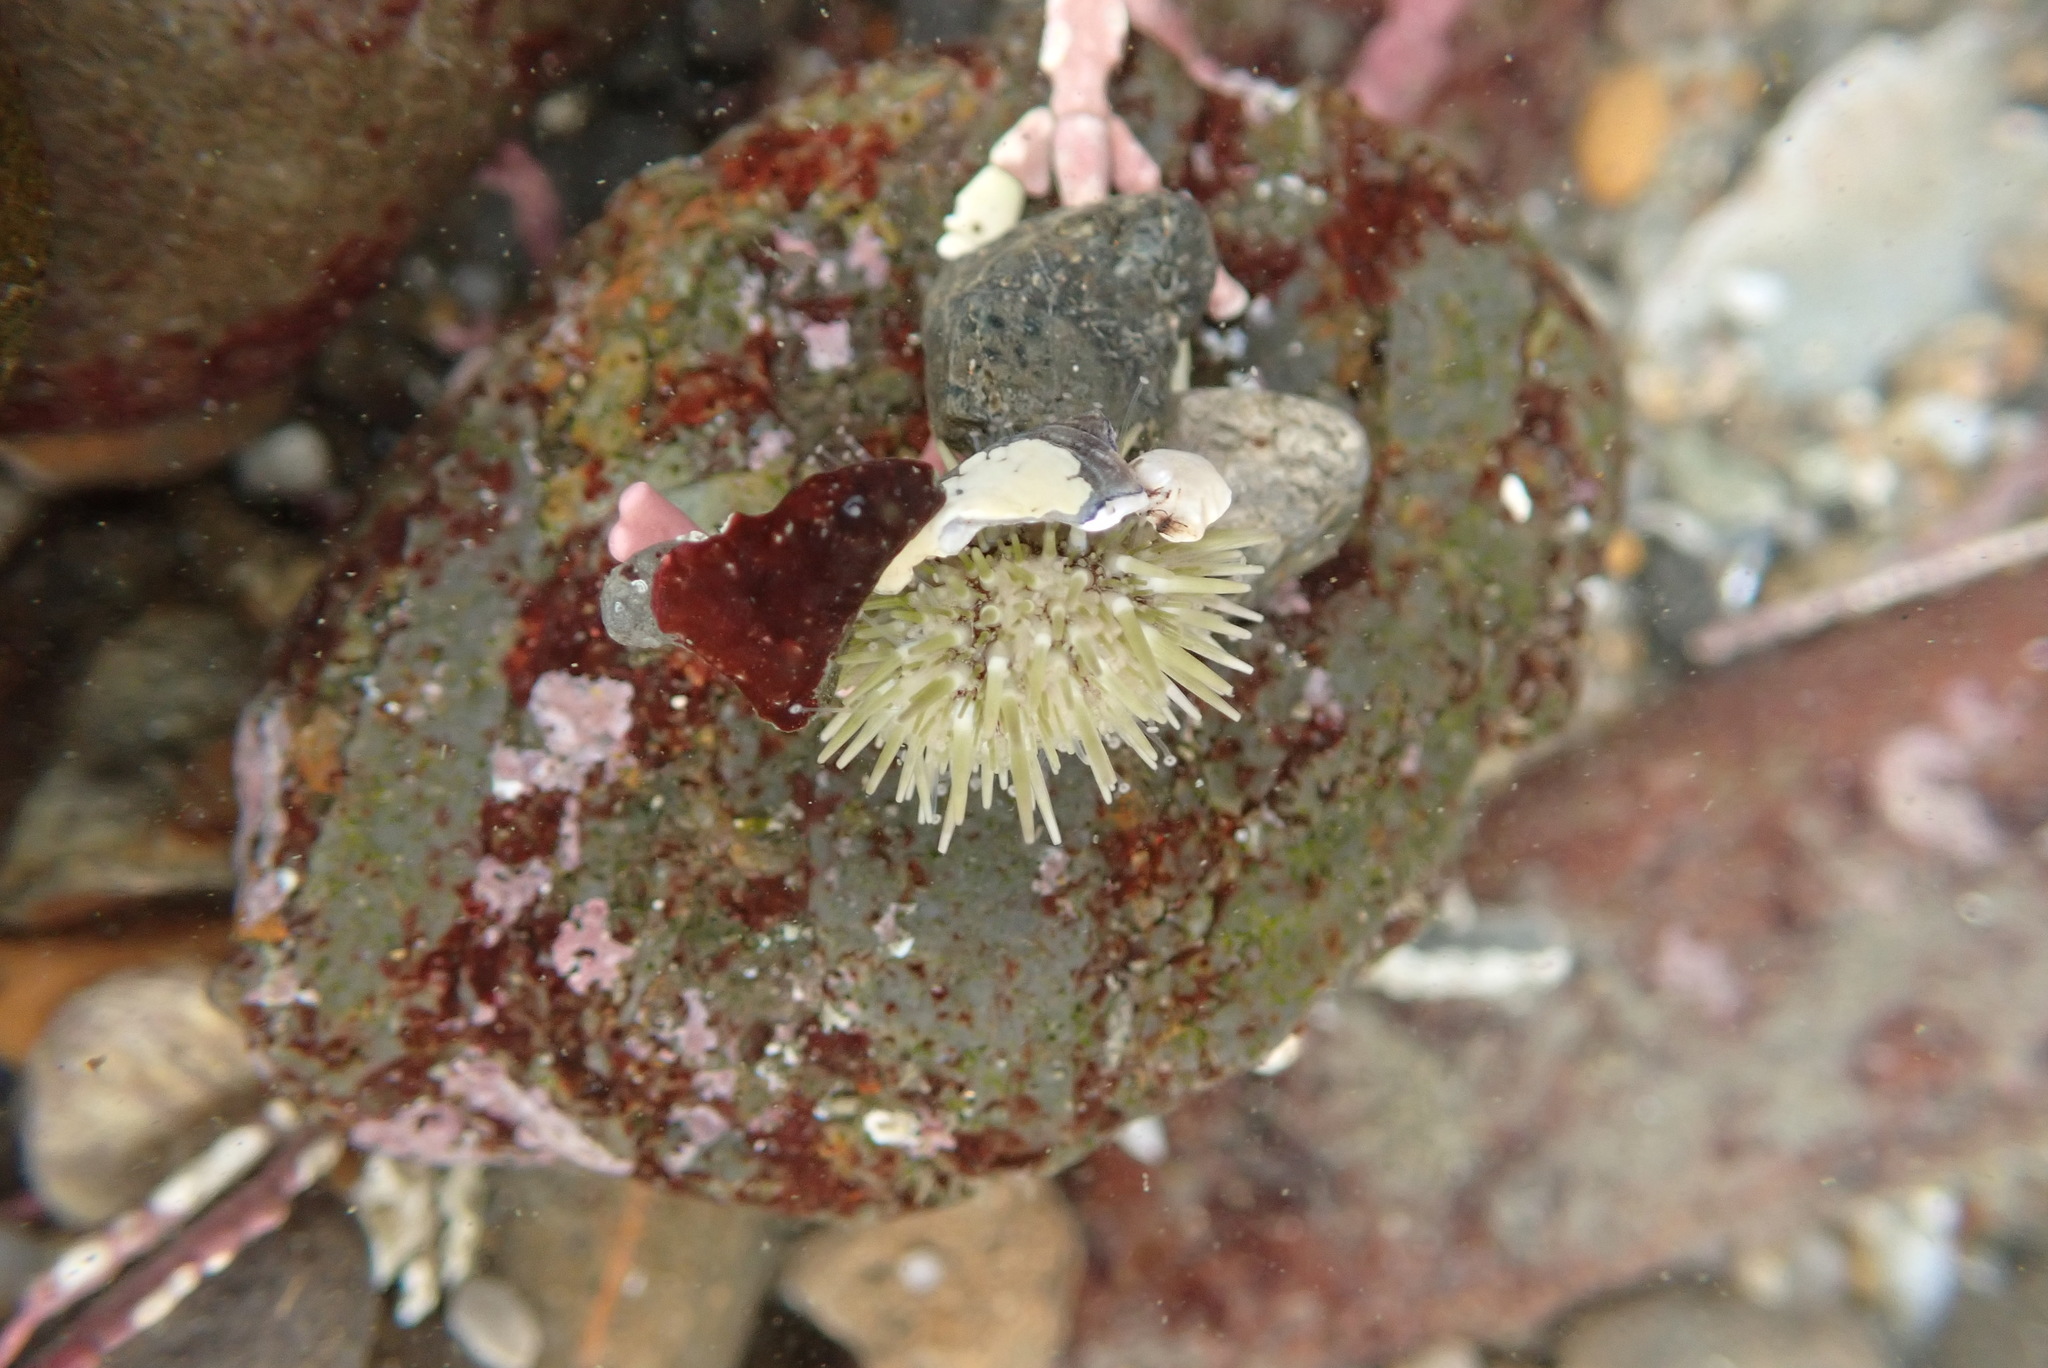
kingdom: Animalia
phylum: Echinodermata
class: Echinoidea
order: Camarodonta
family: Strongylocentrotidae
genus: Strongylocentrotus
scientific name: Strongylocentrotus purpuratus
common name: Purple sea urchin
